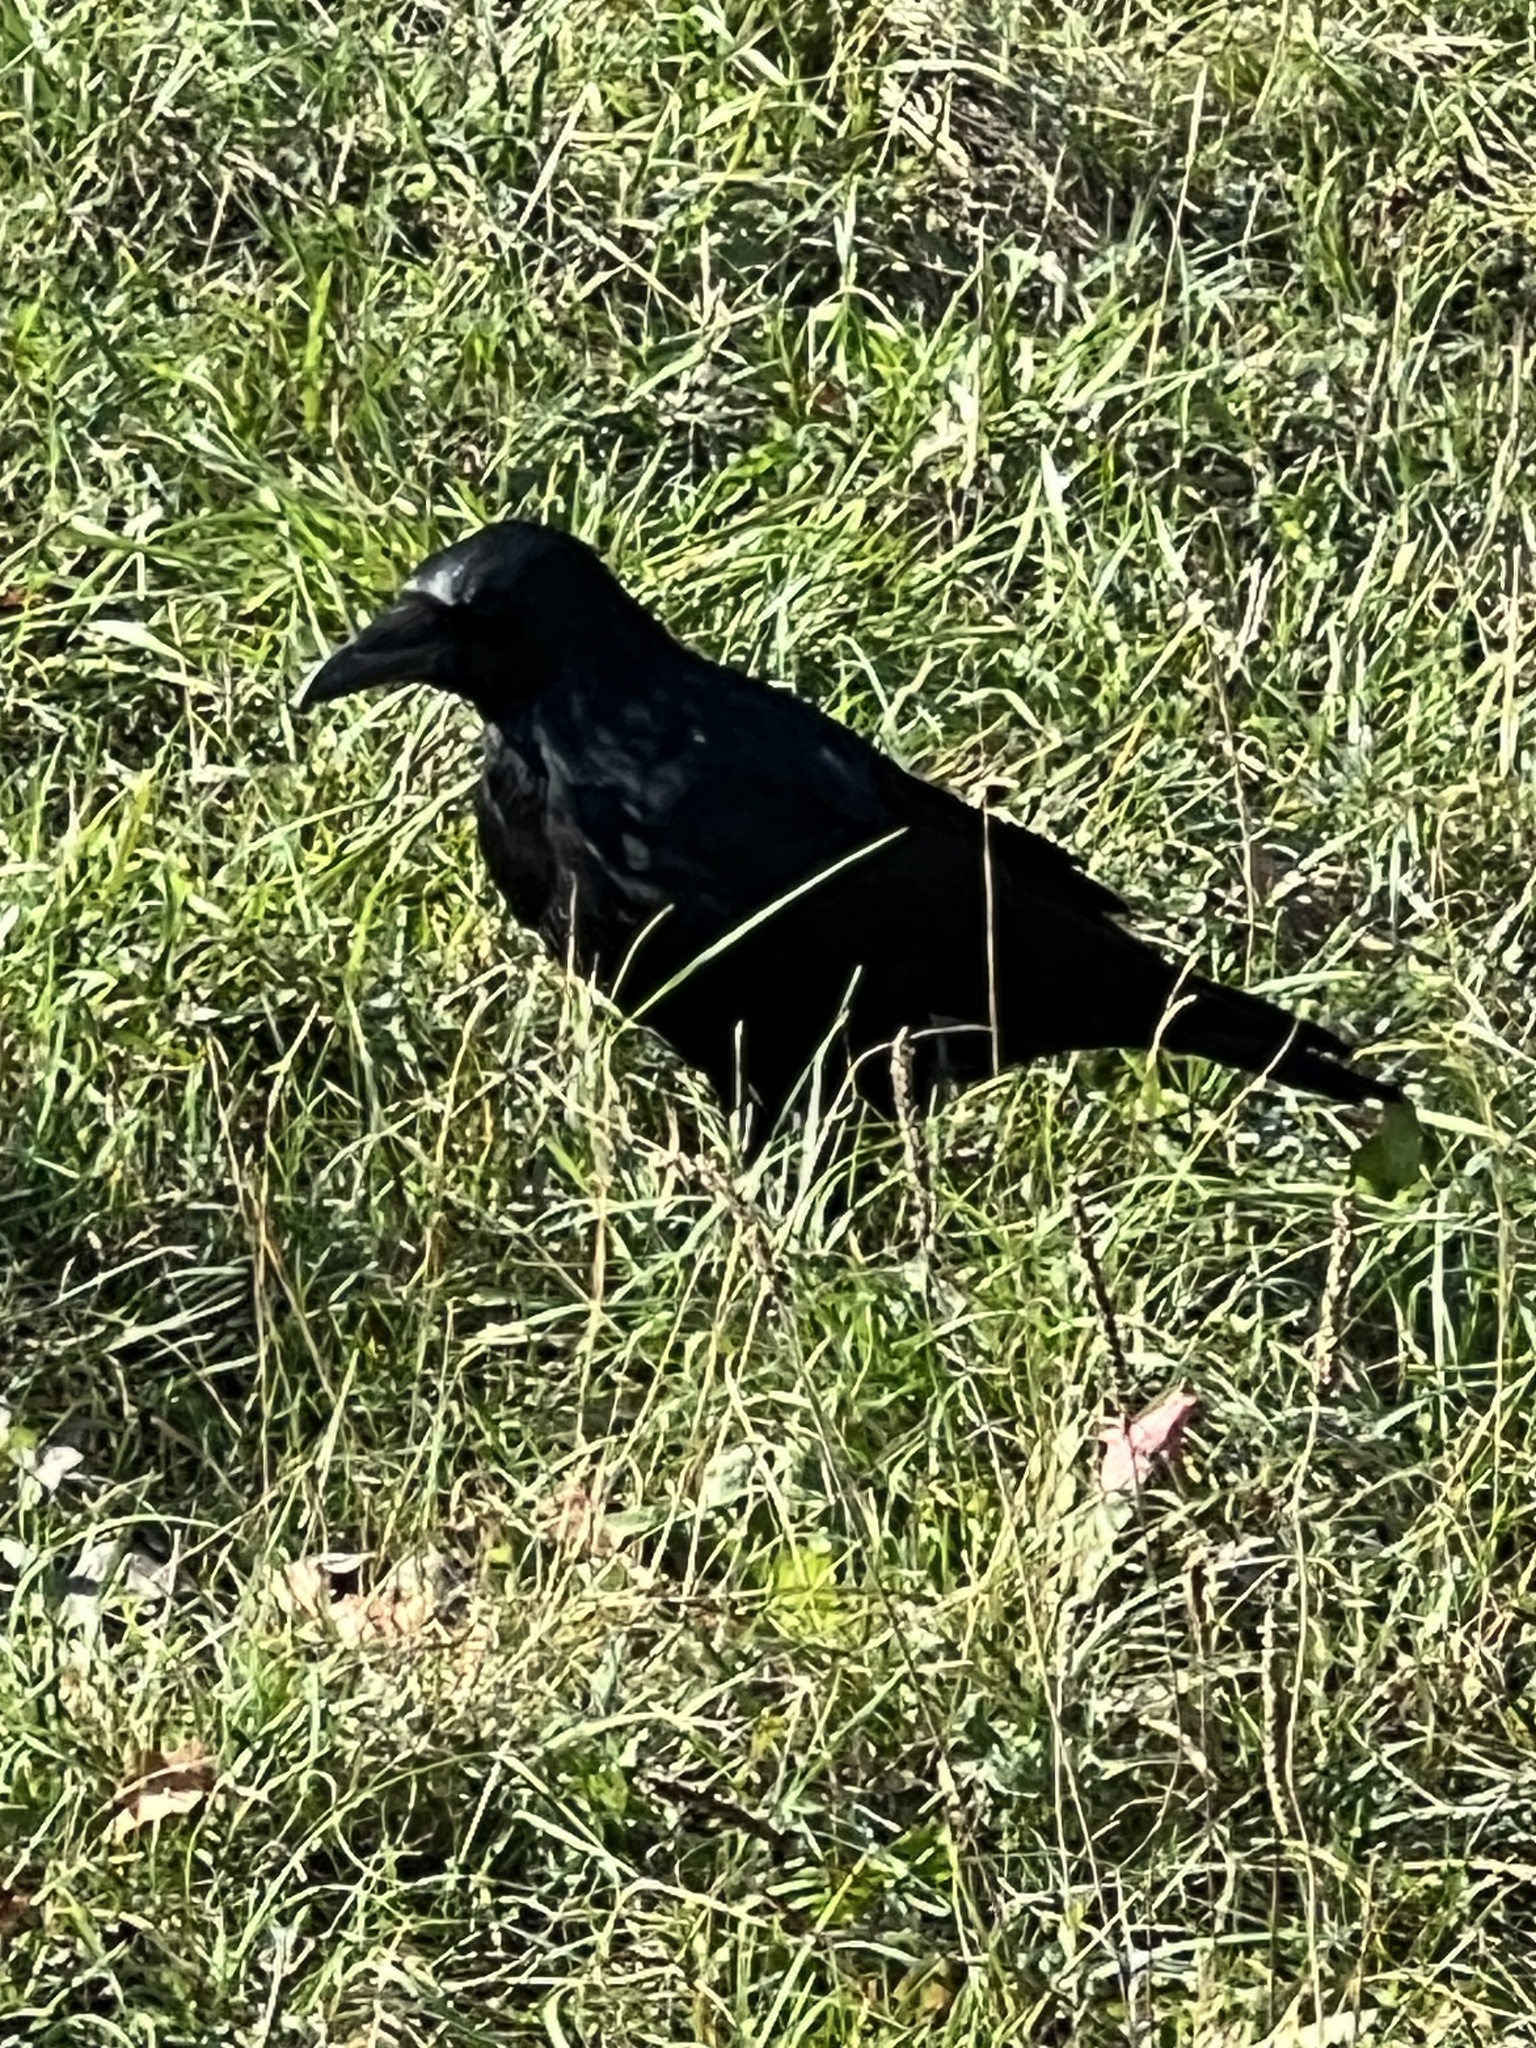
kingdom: Animalia
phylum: Chordata
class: Aves
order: Passeriformes
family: Corvidae
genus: Corvus
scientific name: Corvus
